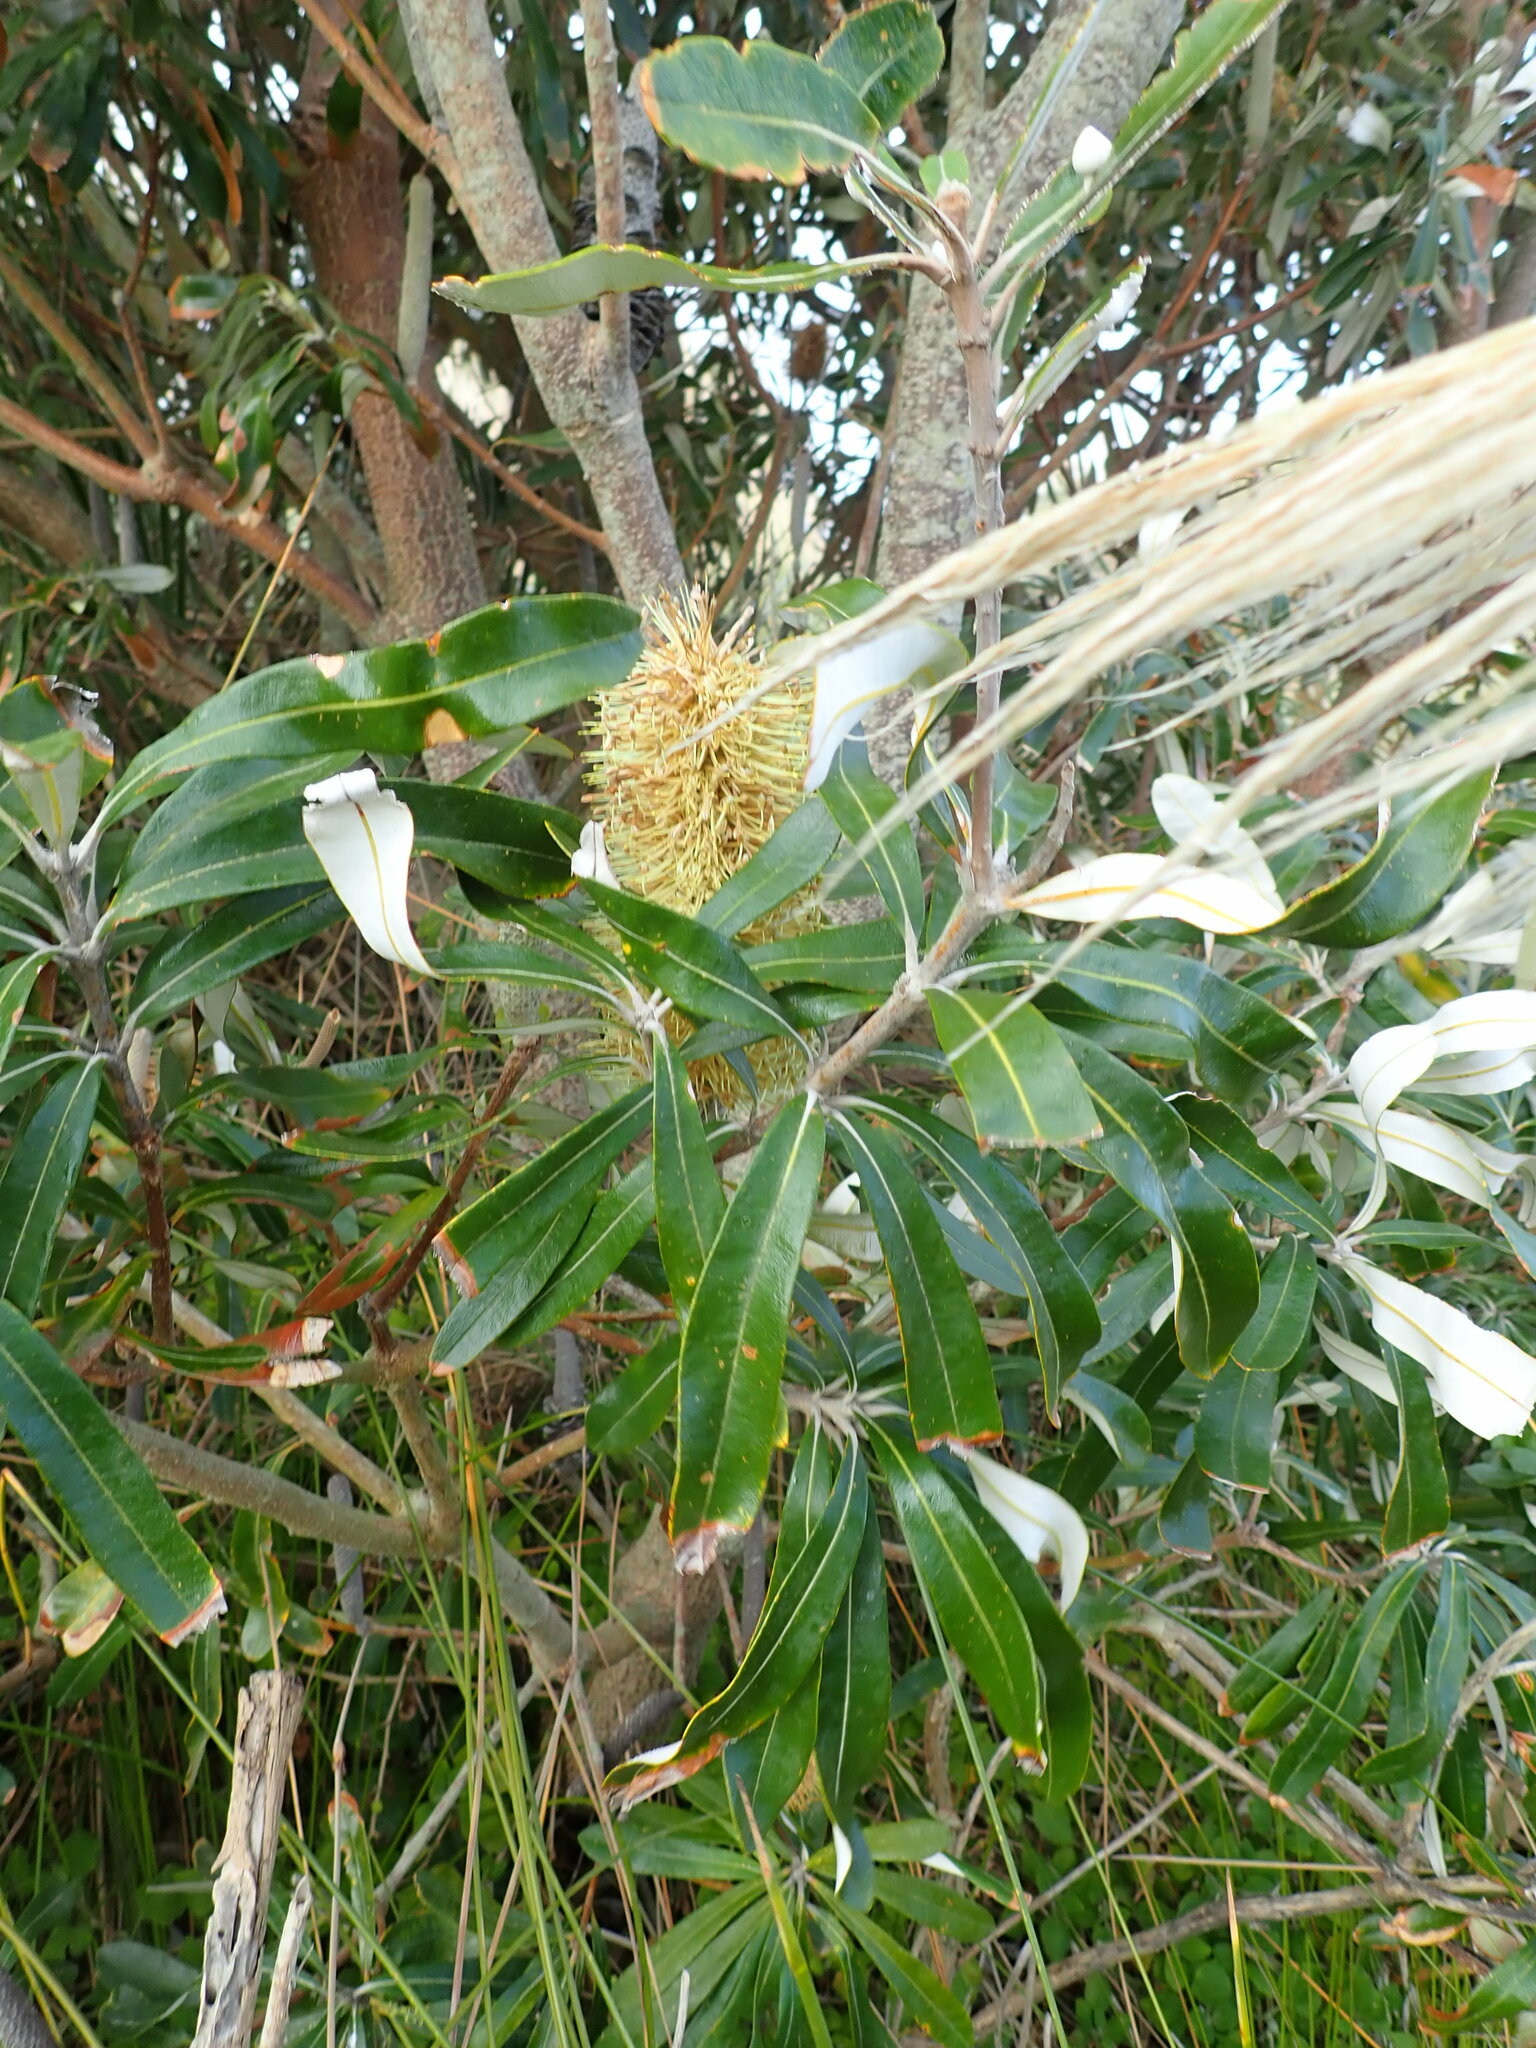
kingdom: Plantae
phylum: Tracheophyta
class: Magnoliopsida
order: Proteales
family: Proteaceae
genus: Banksia
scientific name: Banksia integrifolia
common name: White-honeysuckle
